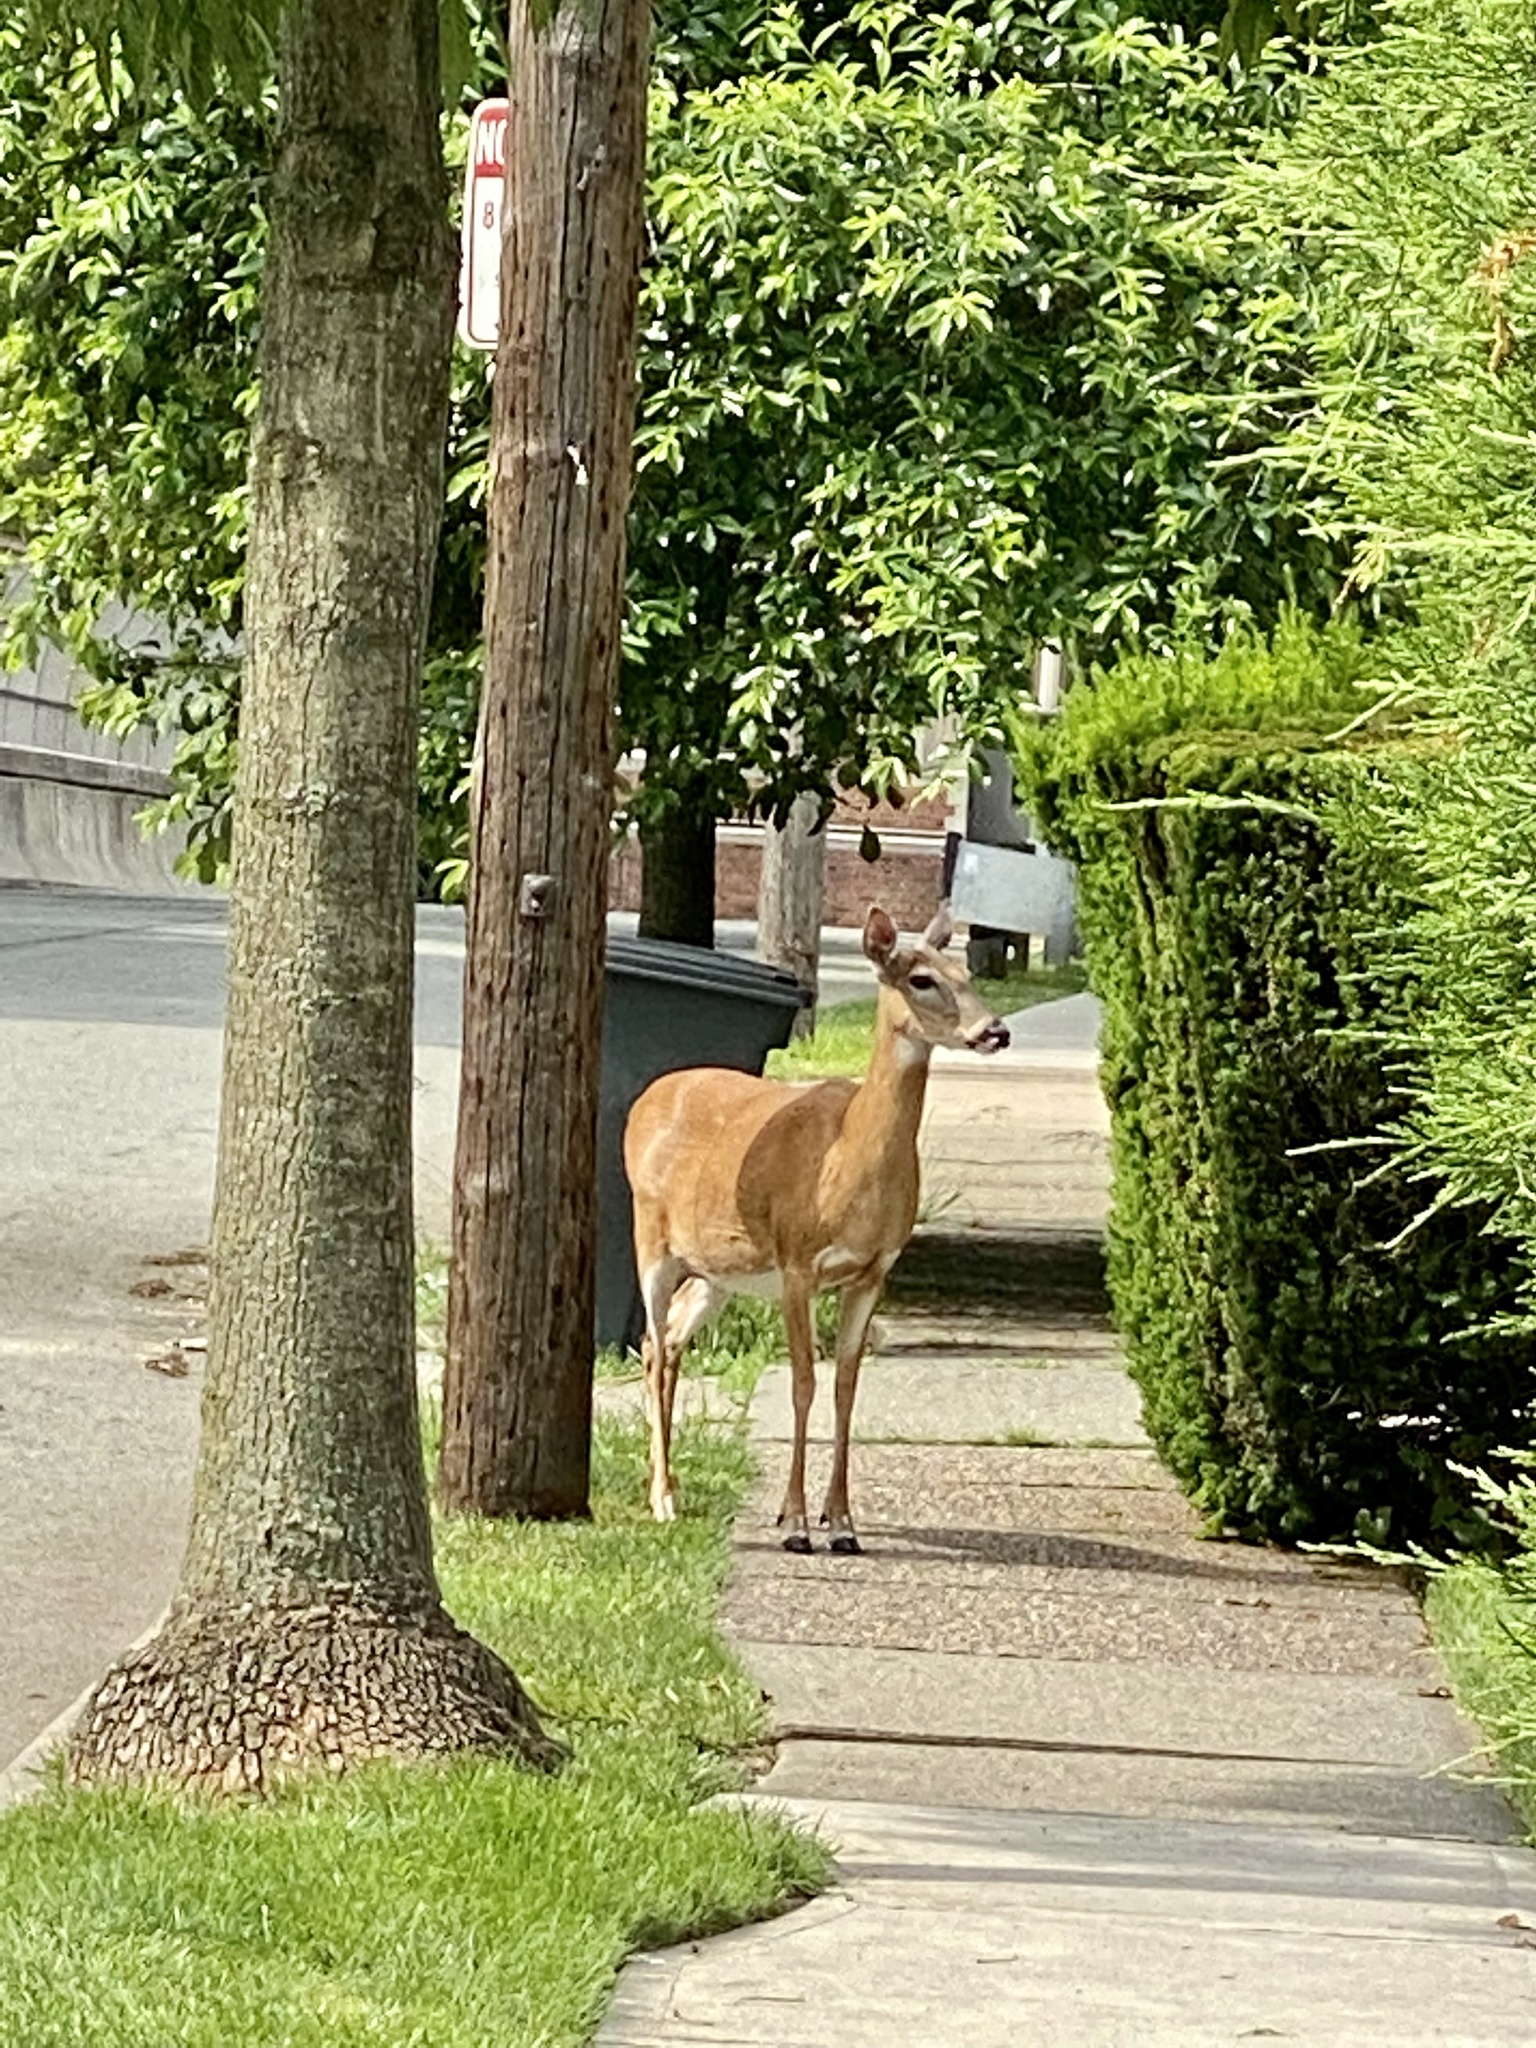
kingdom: Animalia
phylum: Chordata
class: Mammalia
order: Artiodactyla
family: Cervidae
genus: Odocoileus
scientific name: Odocoileus virginianus
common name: White-tailed deer
